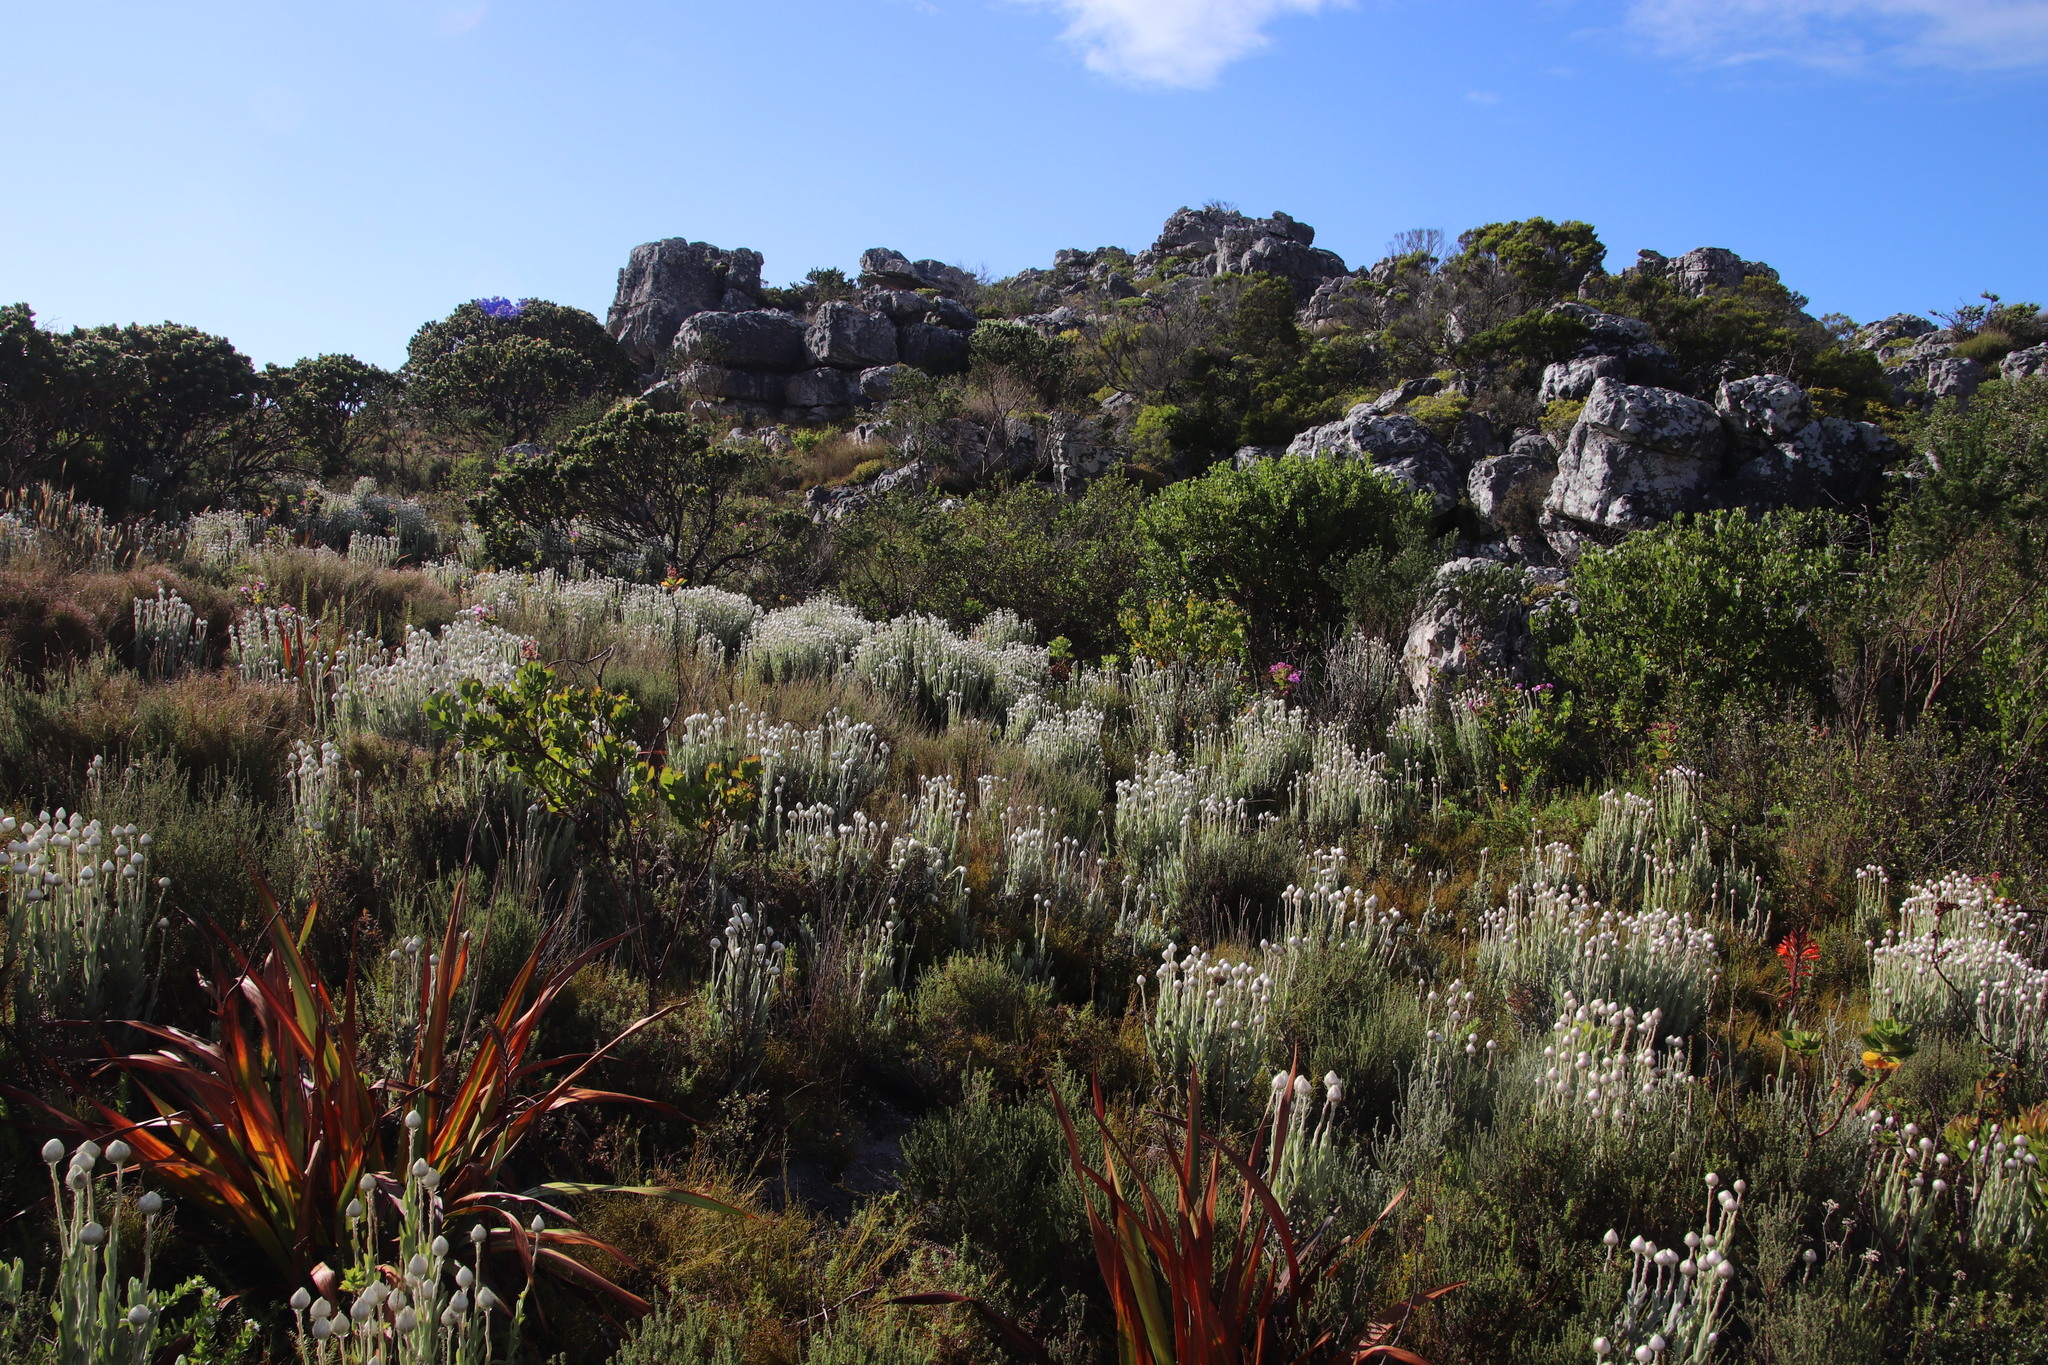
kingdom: Plantae
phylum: Tracheophyta
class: Magnoliopsida
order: Asterales
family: Asteraceae
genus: Syncarpha
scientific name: Syncarpha vestita
